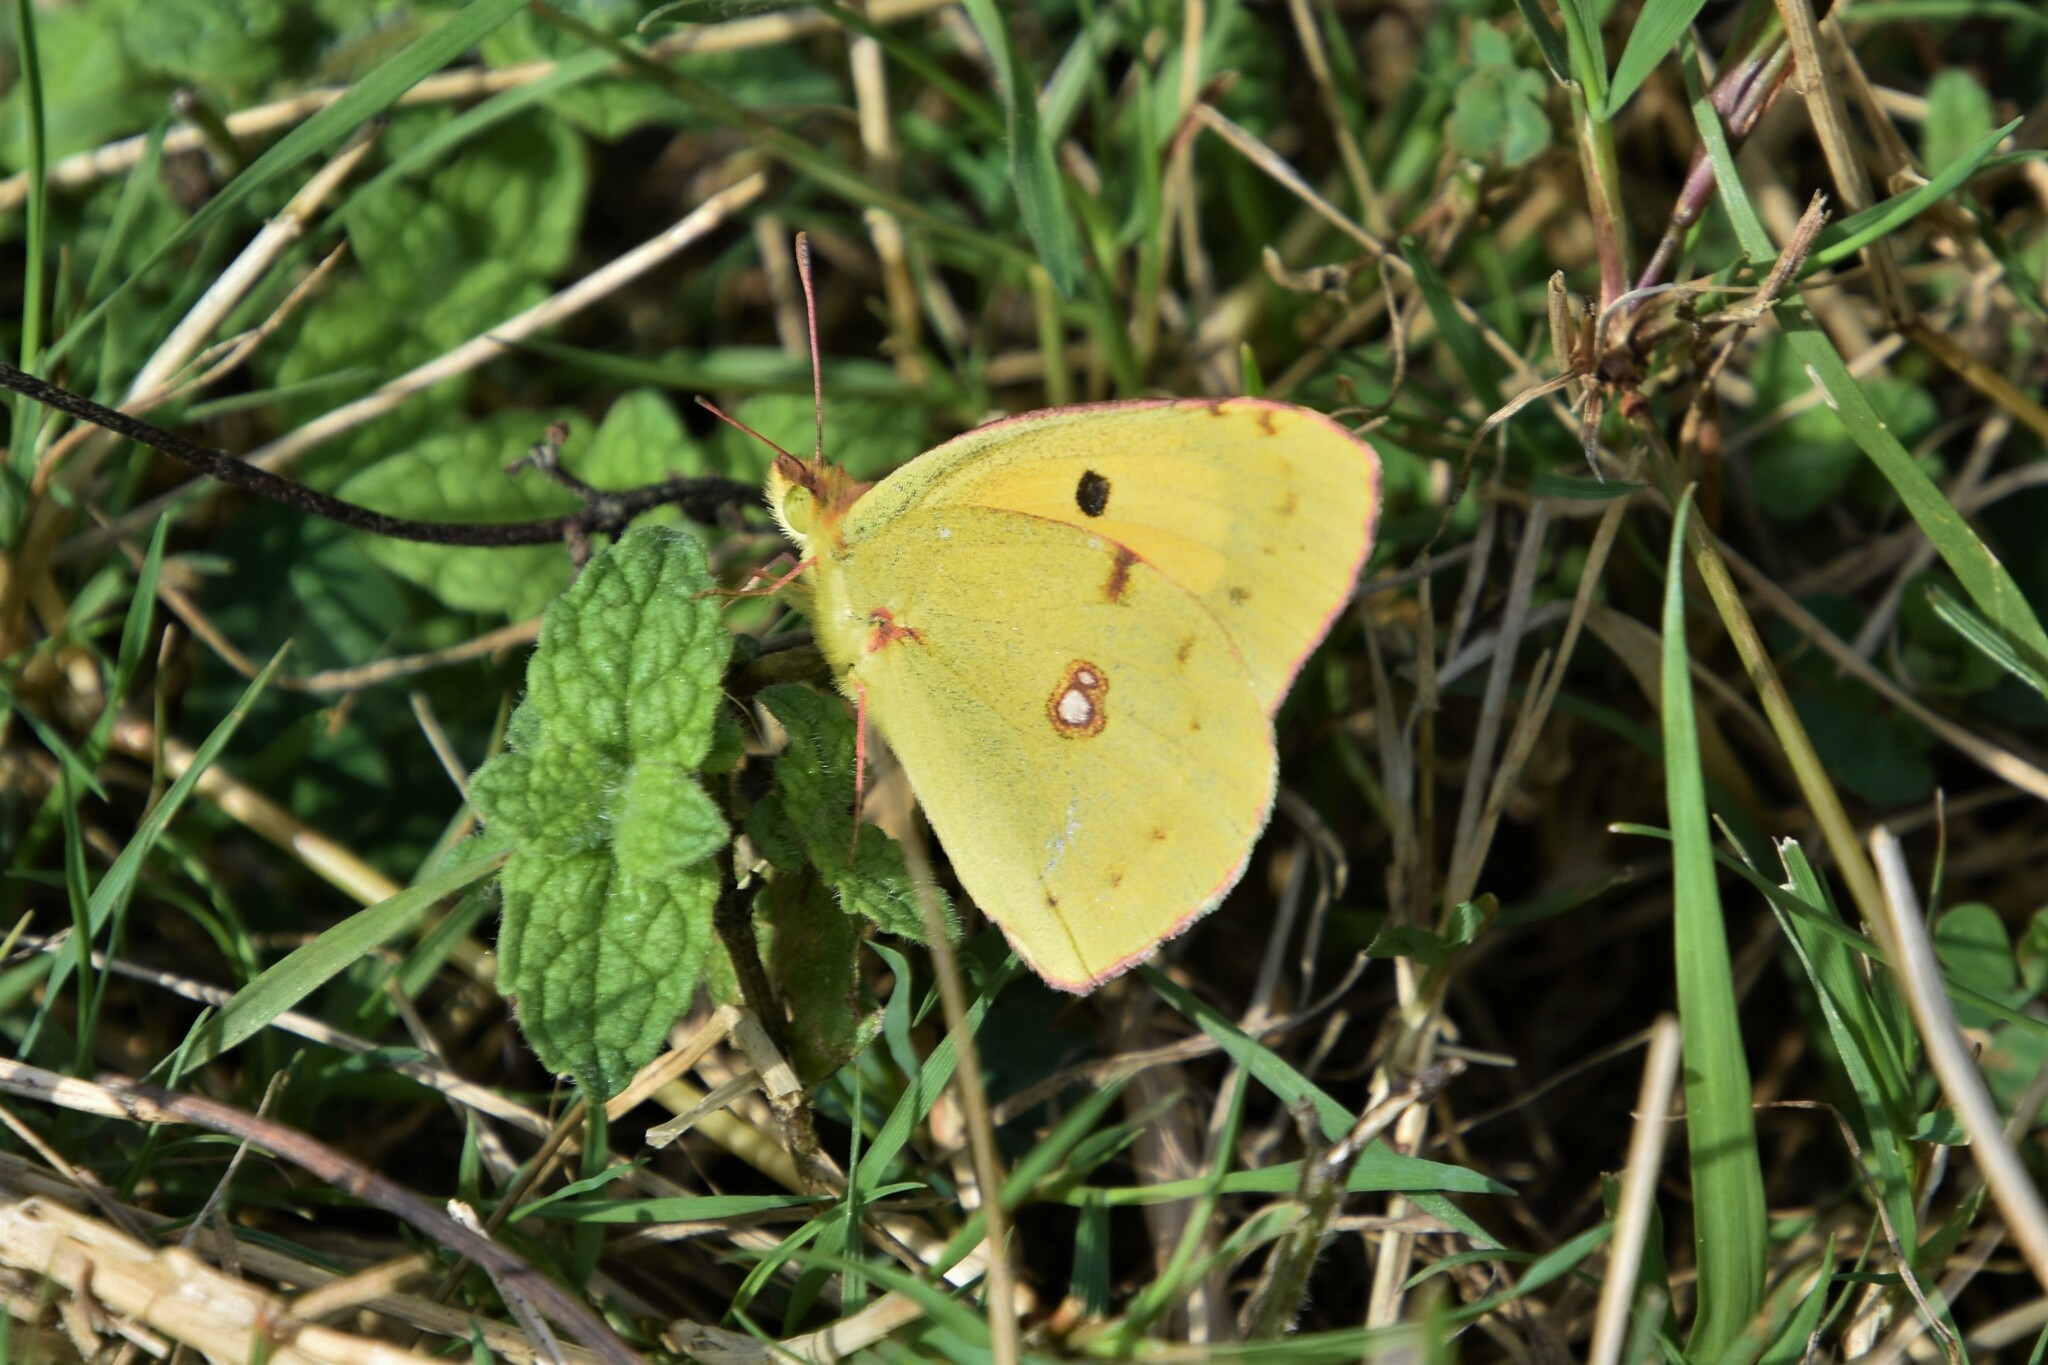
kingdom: Animalia
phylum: Arthropoda
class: Insecta
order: Lepidoptera
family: Pieridae
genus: Colias
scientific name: Colias croceus
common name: Clouded yellow
